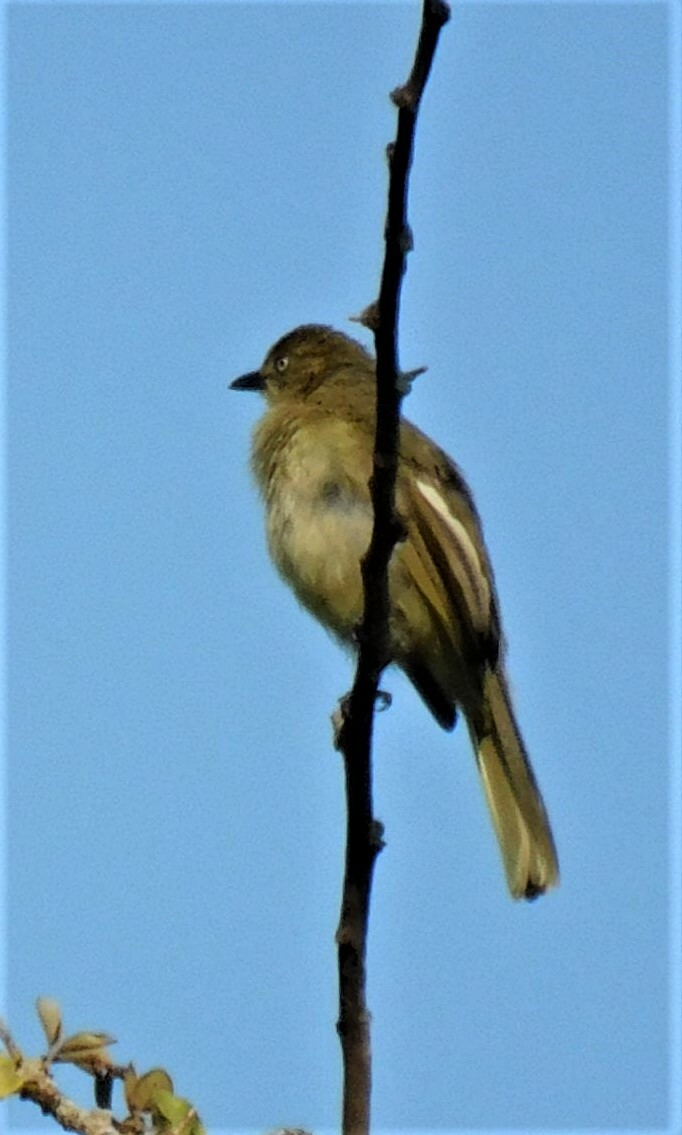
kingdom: Animalia
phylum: Chordata
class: Aves
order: Passeriformes
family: Pycnonotidae
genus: Andropadus
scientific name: Andropadus importunus
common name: Sombre greenbul
